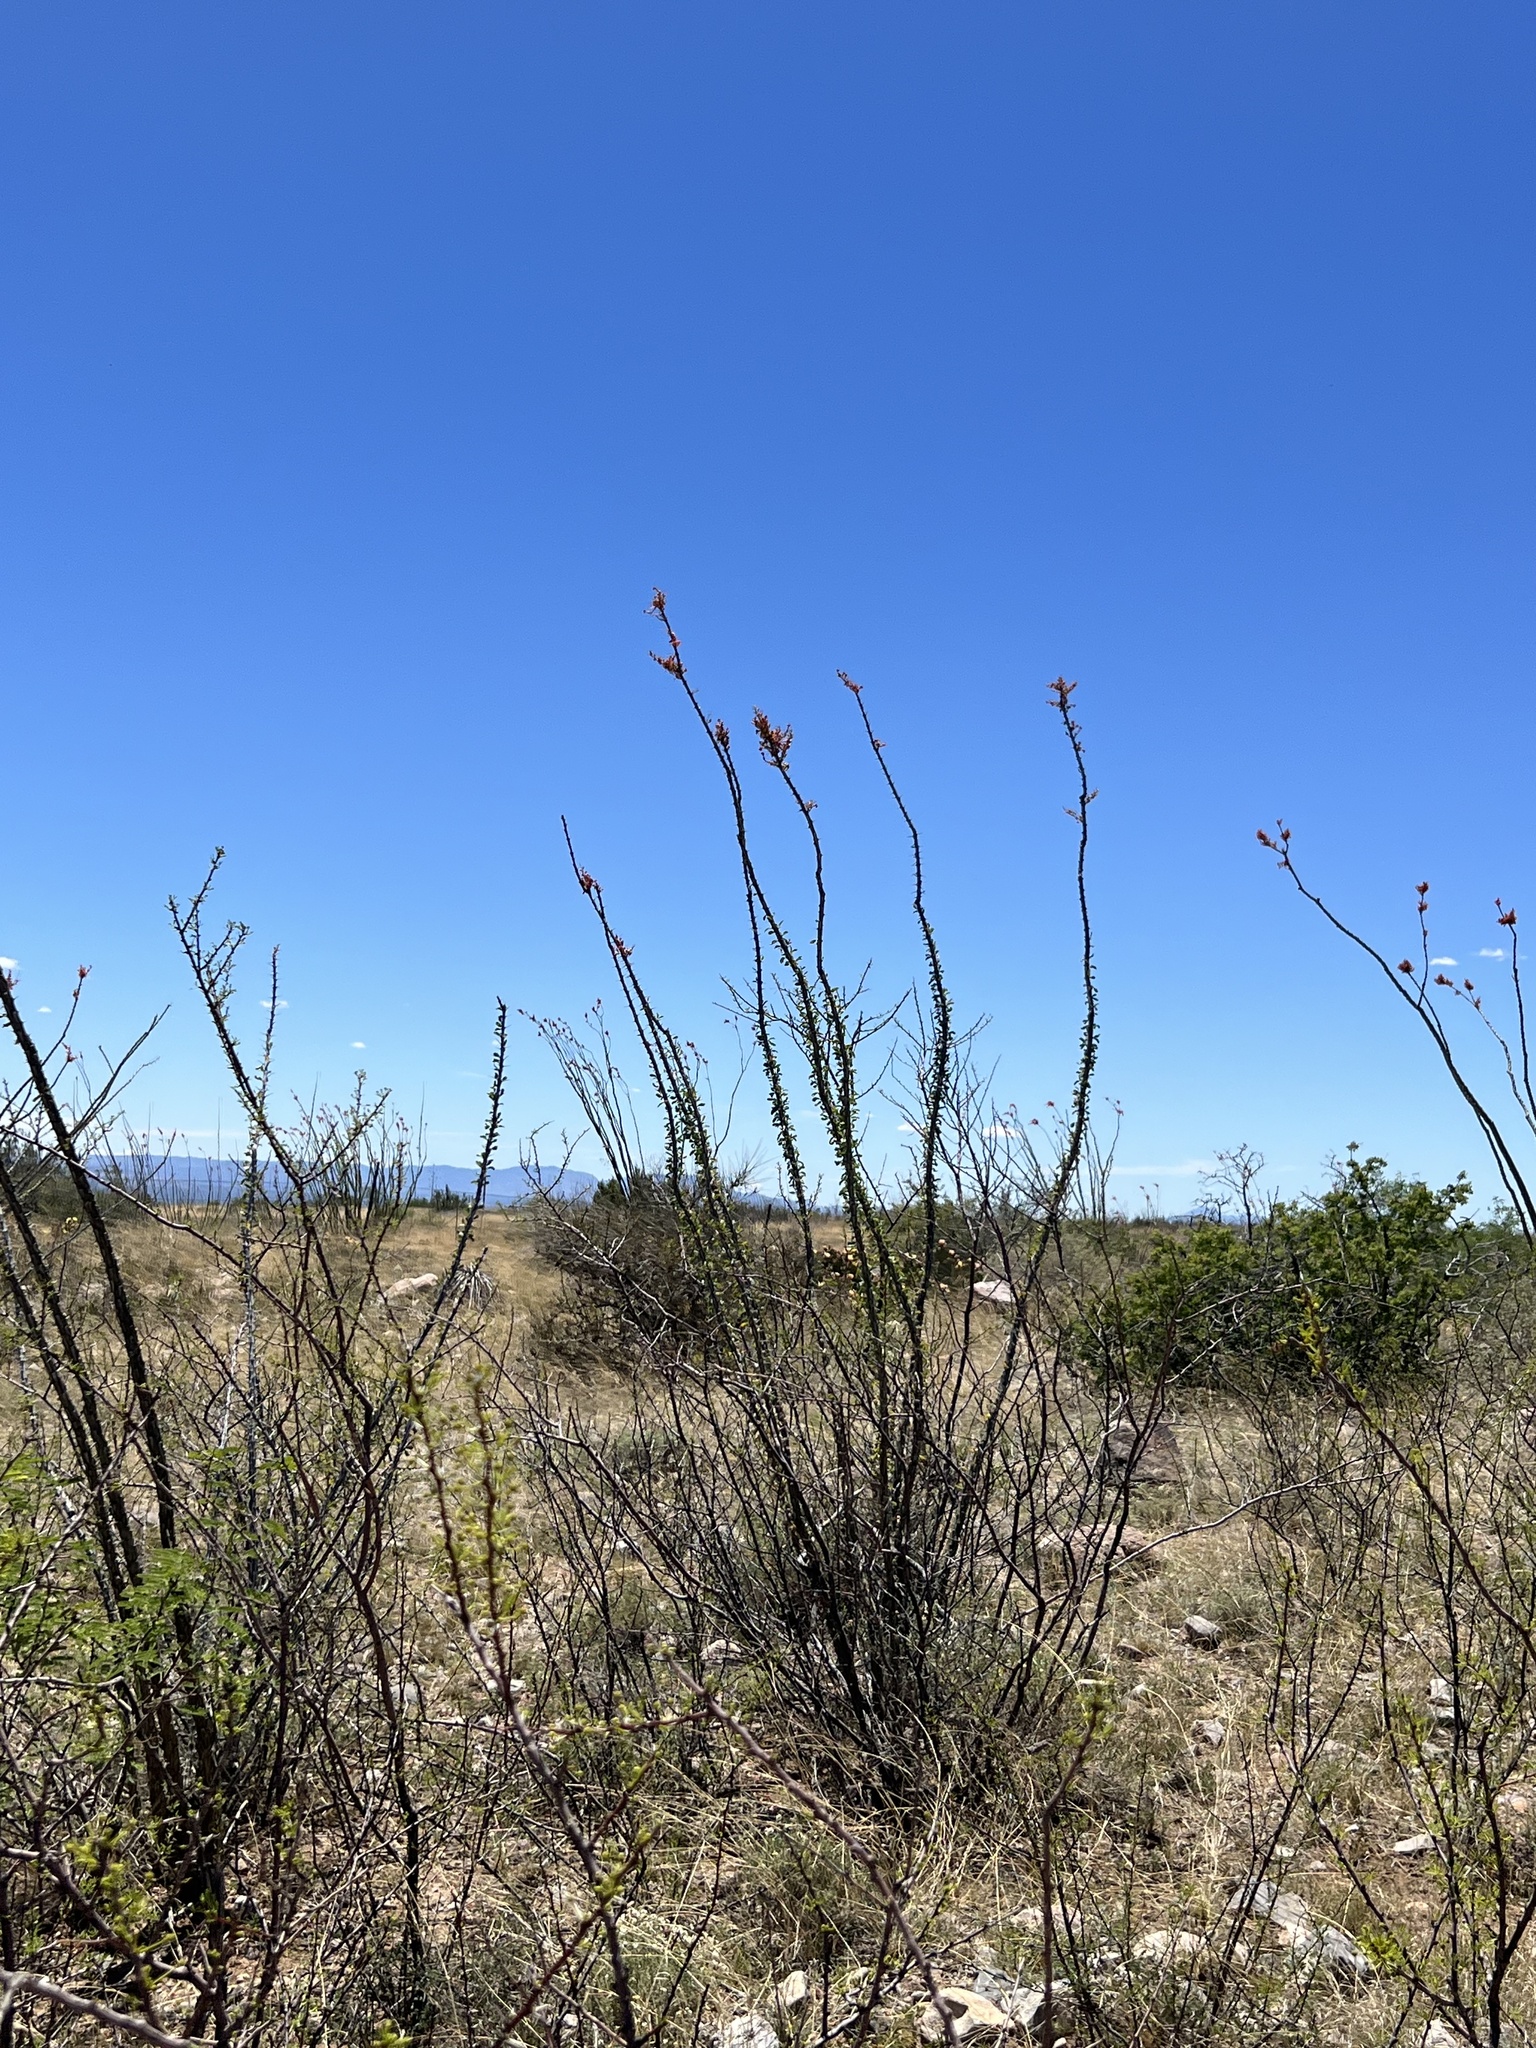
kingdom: Plantae
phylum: Tracheophyta
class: Magnoliopsida
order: Ericales
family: Fouquieriaceae
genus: Fouquieria
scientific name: Fouquieria splendens
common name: Vine-cactus
